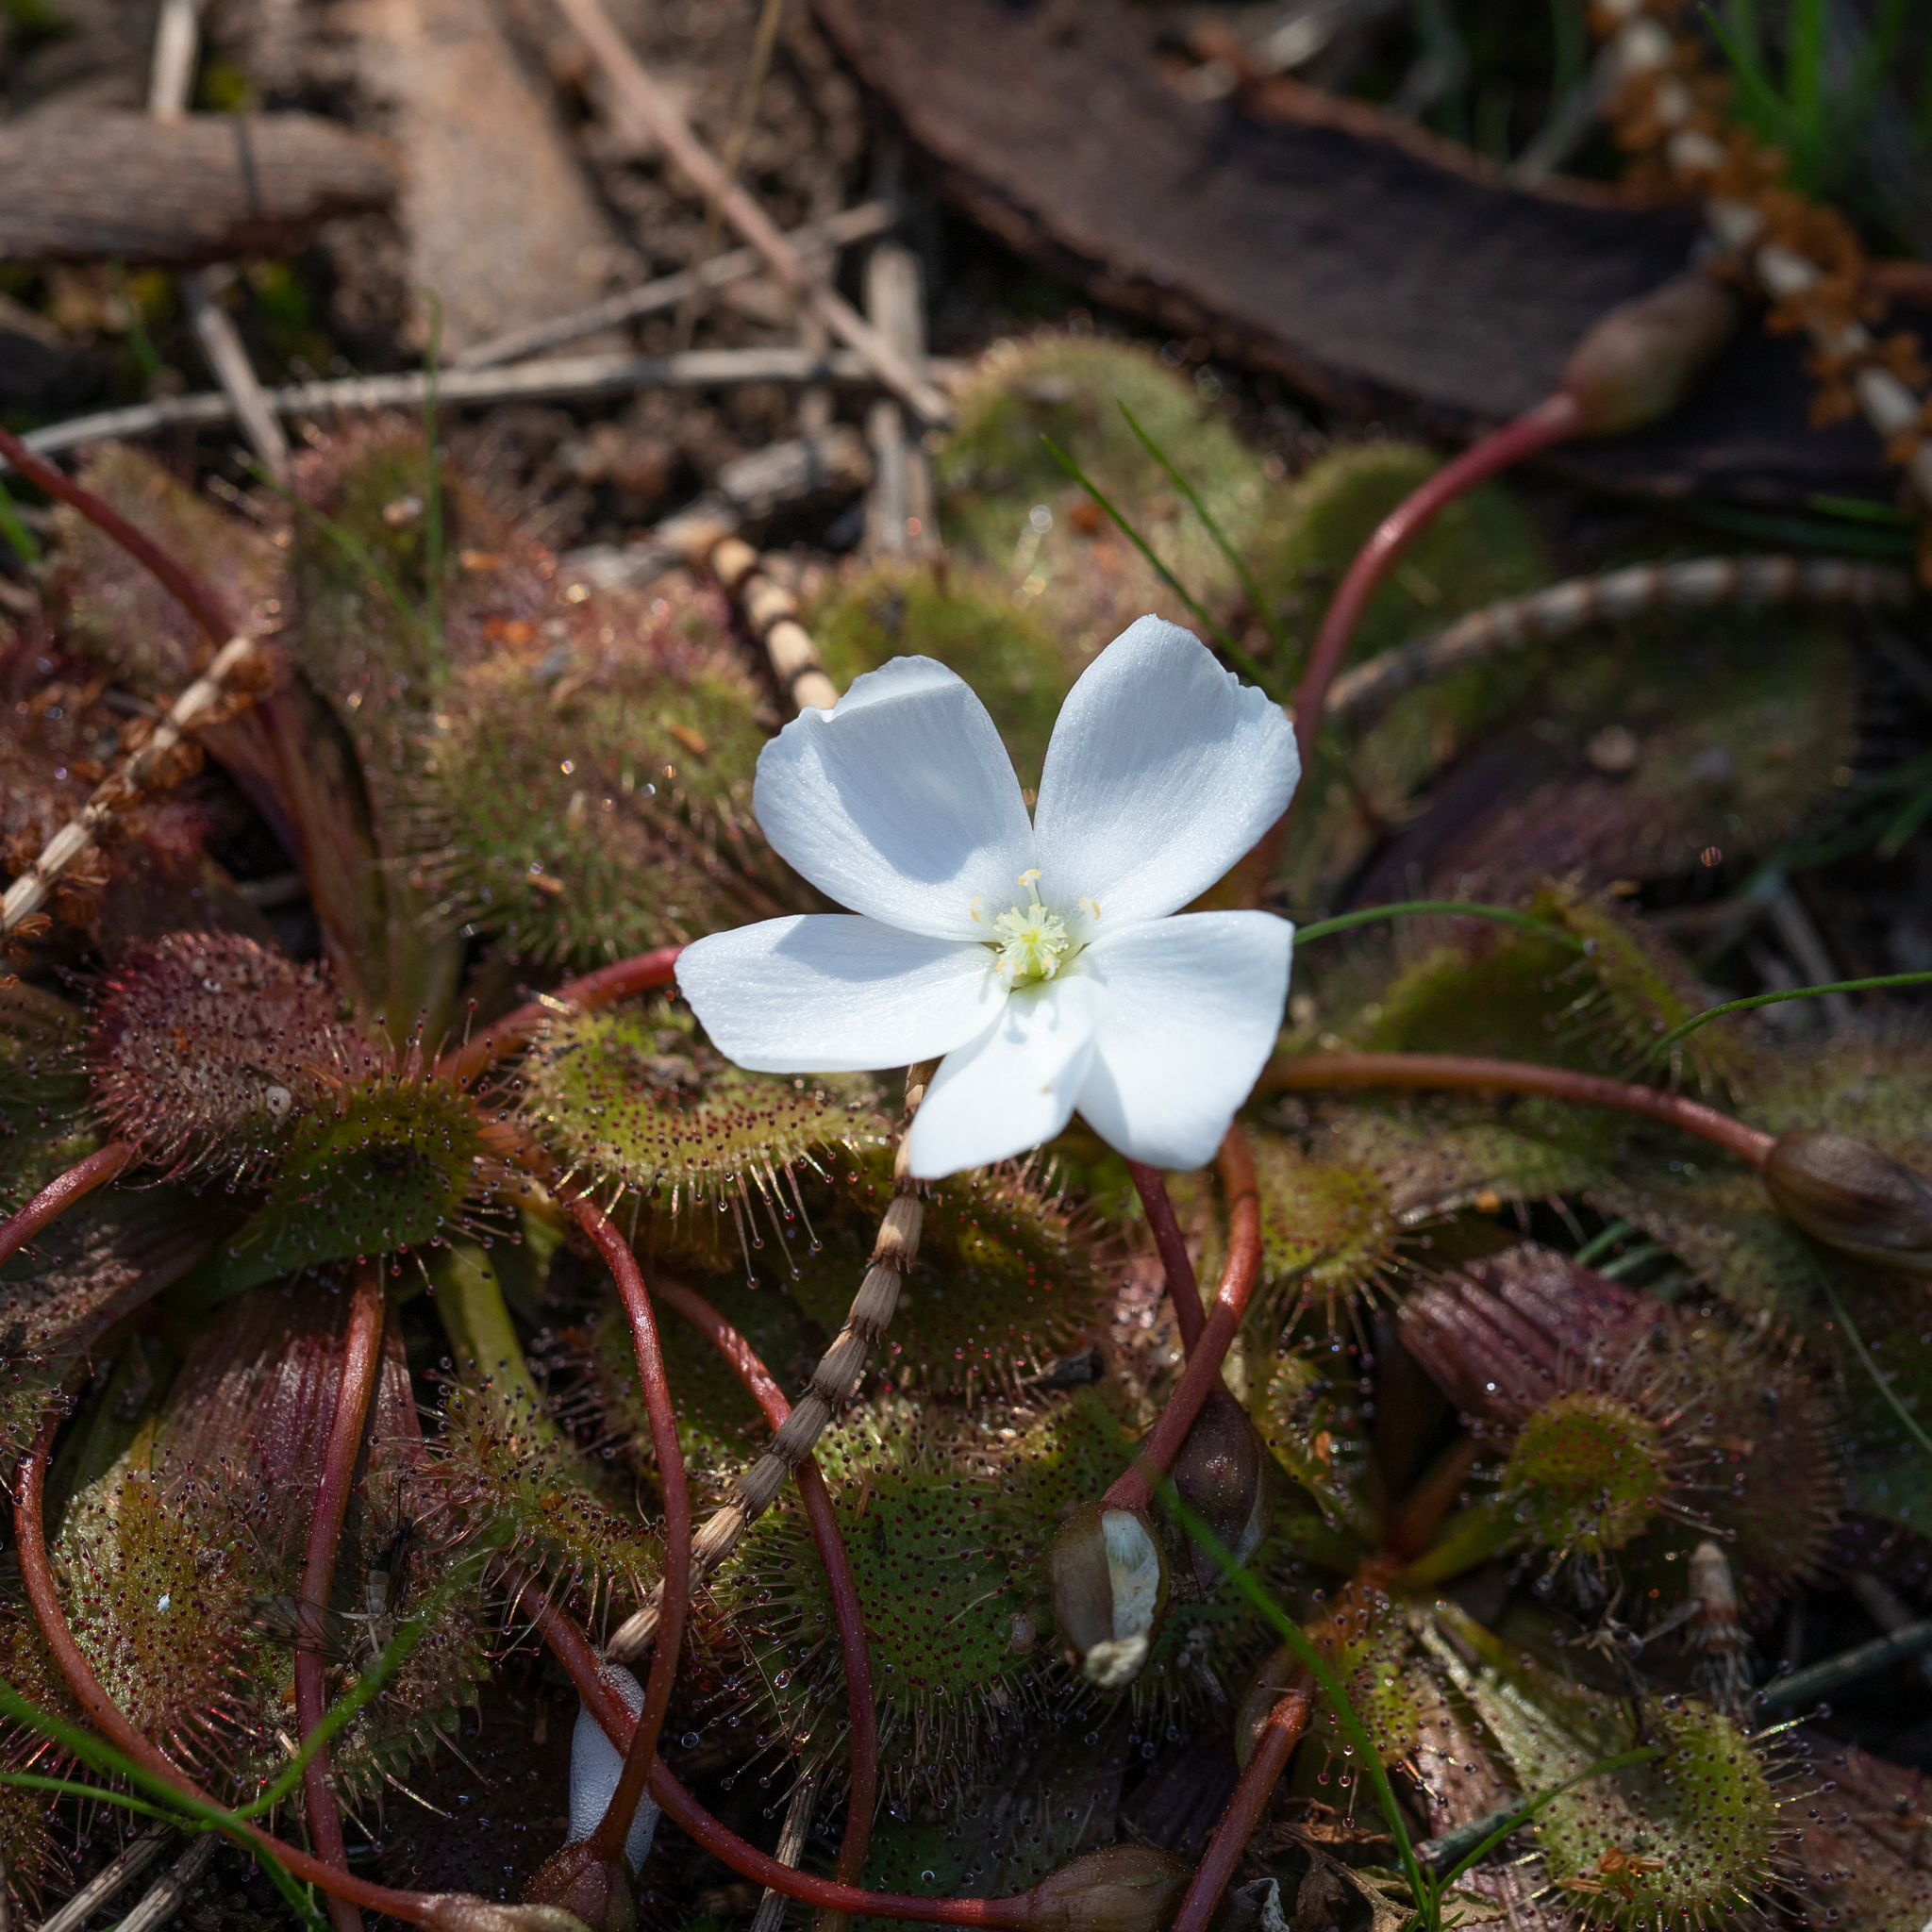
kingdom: Plantae
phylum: Tracheophyta
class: Magnoliopsida
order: Caryophyllales
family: Droseraceae
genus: Drosera
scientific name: Drosera whittakeri
